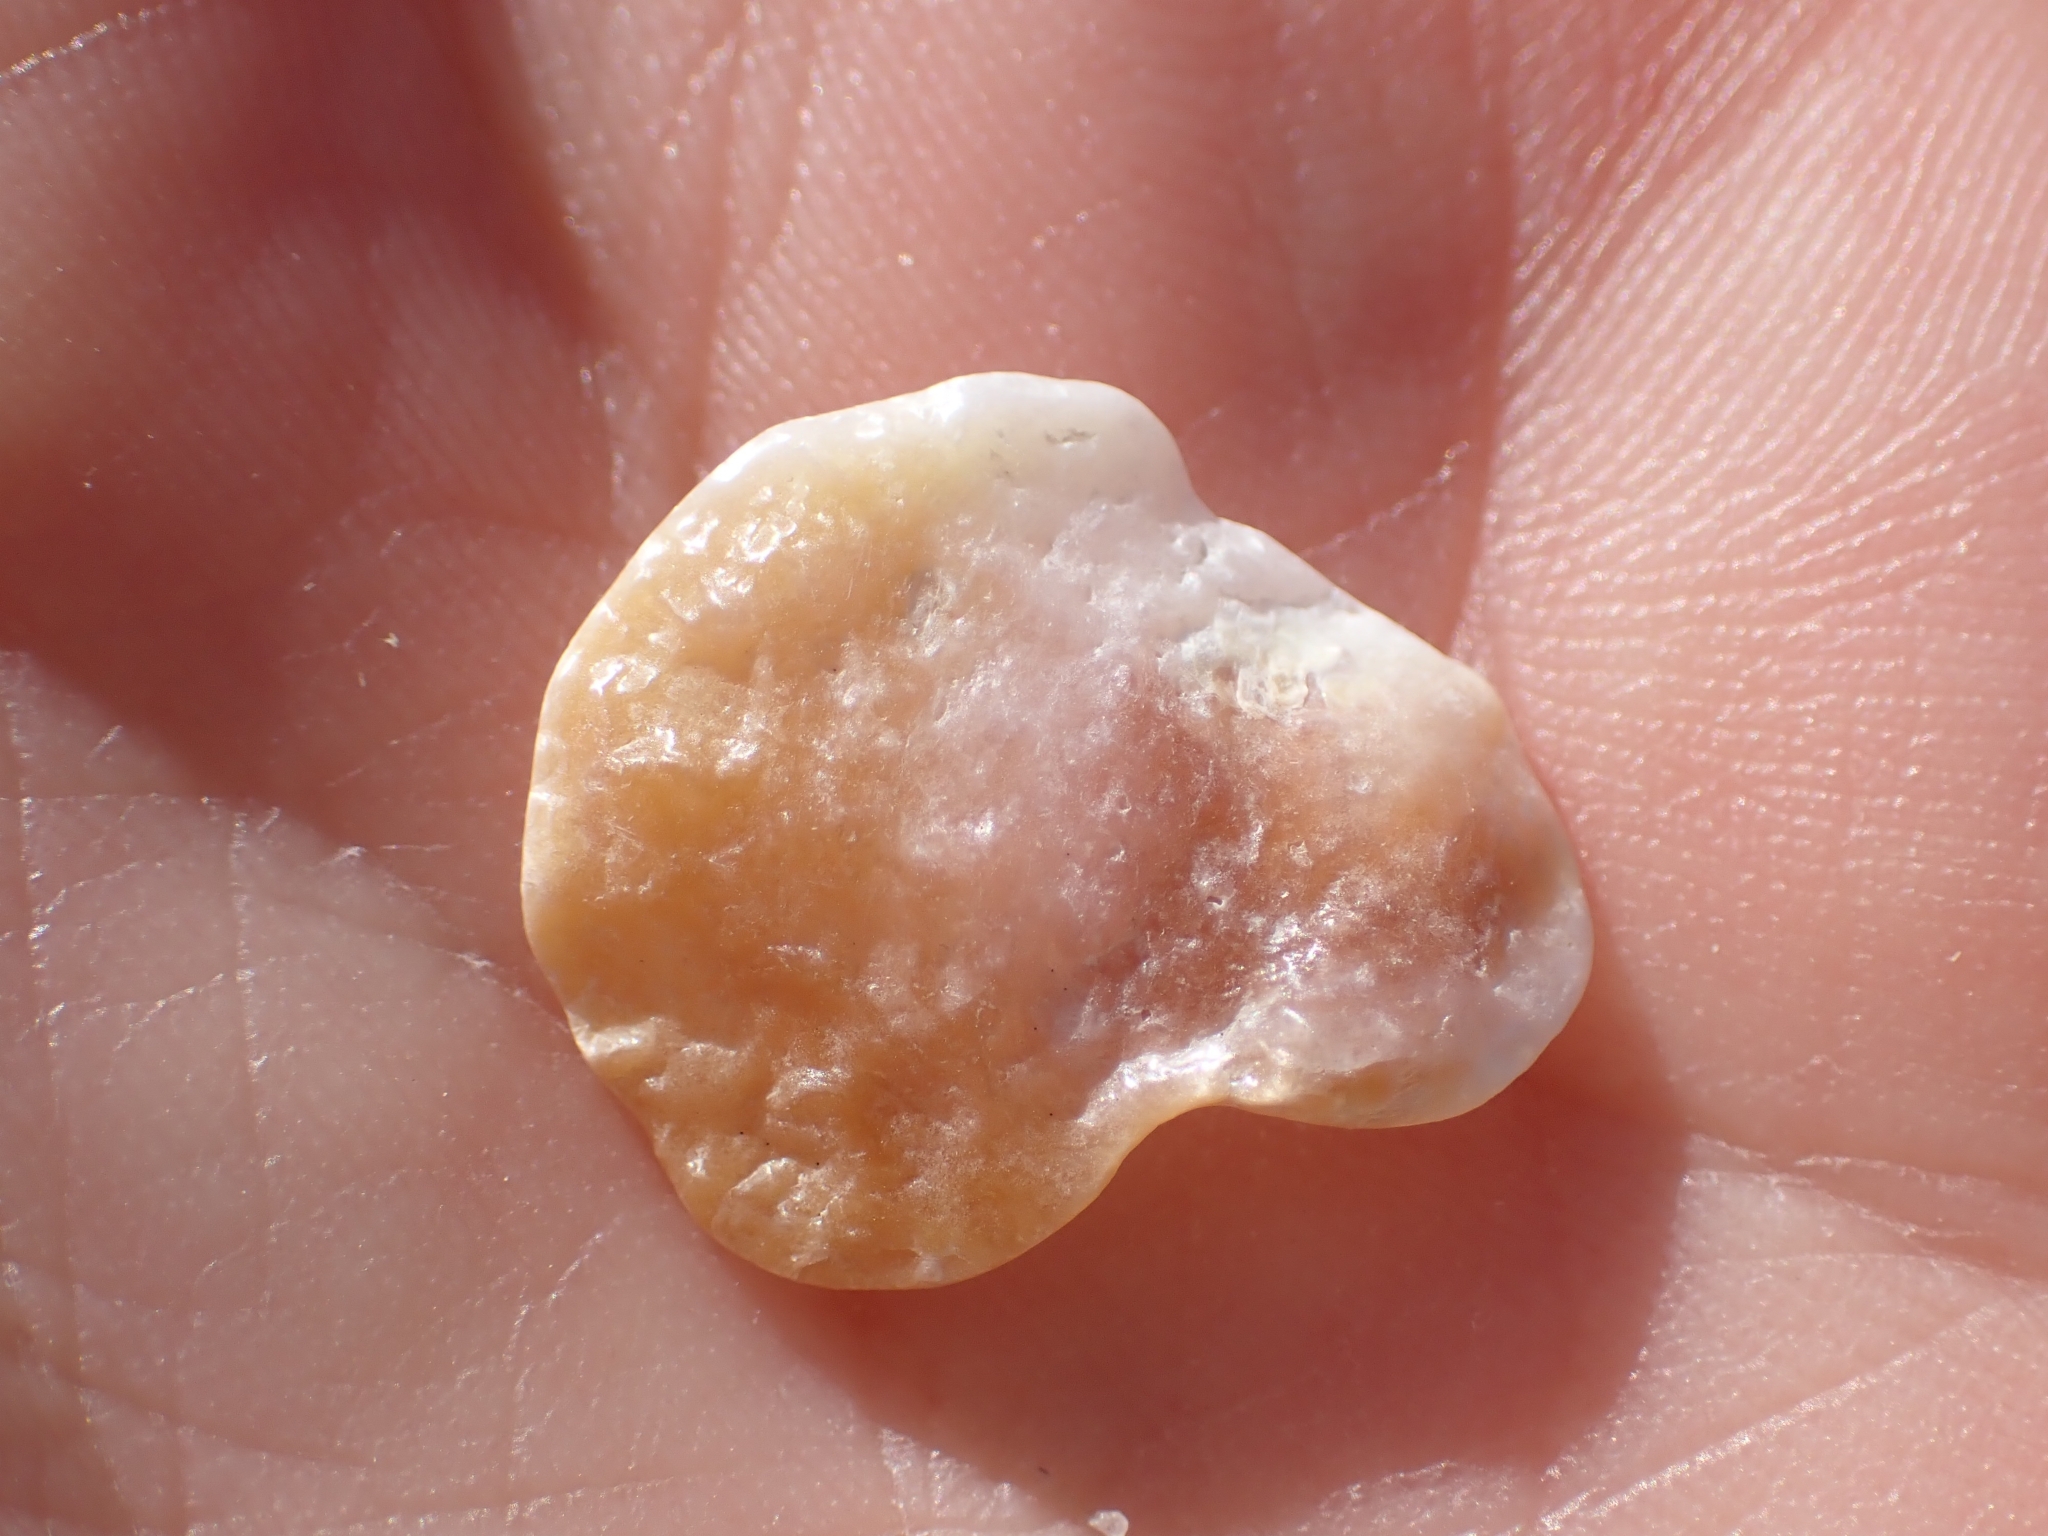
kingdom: Animalia
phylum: Mollusca
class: Bivalvia
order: Pectinida
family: Anomiidae
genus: Anomia
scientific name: Anomia ephippium
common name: Saddle oyster
